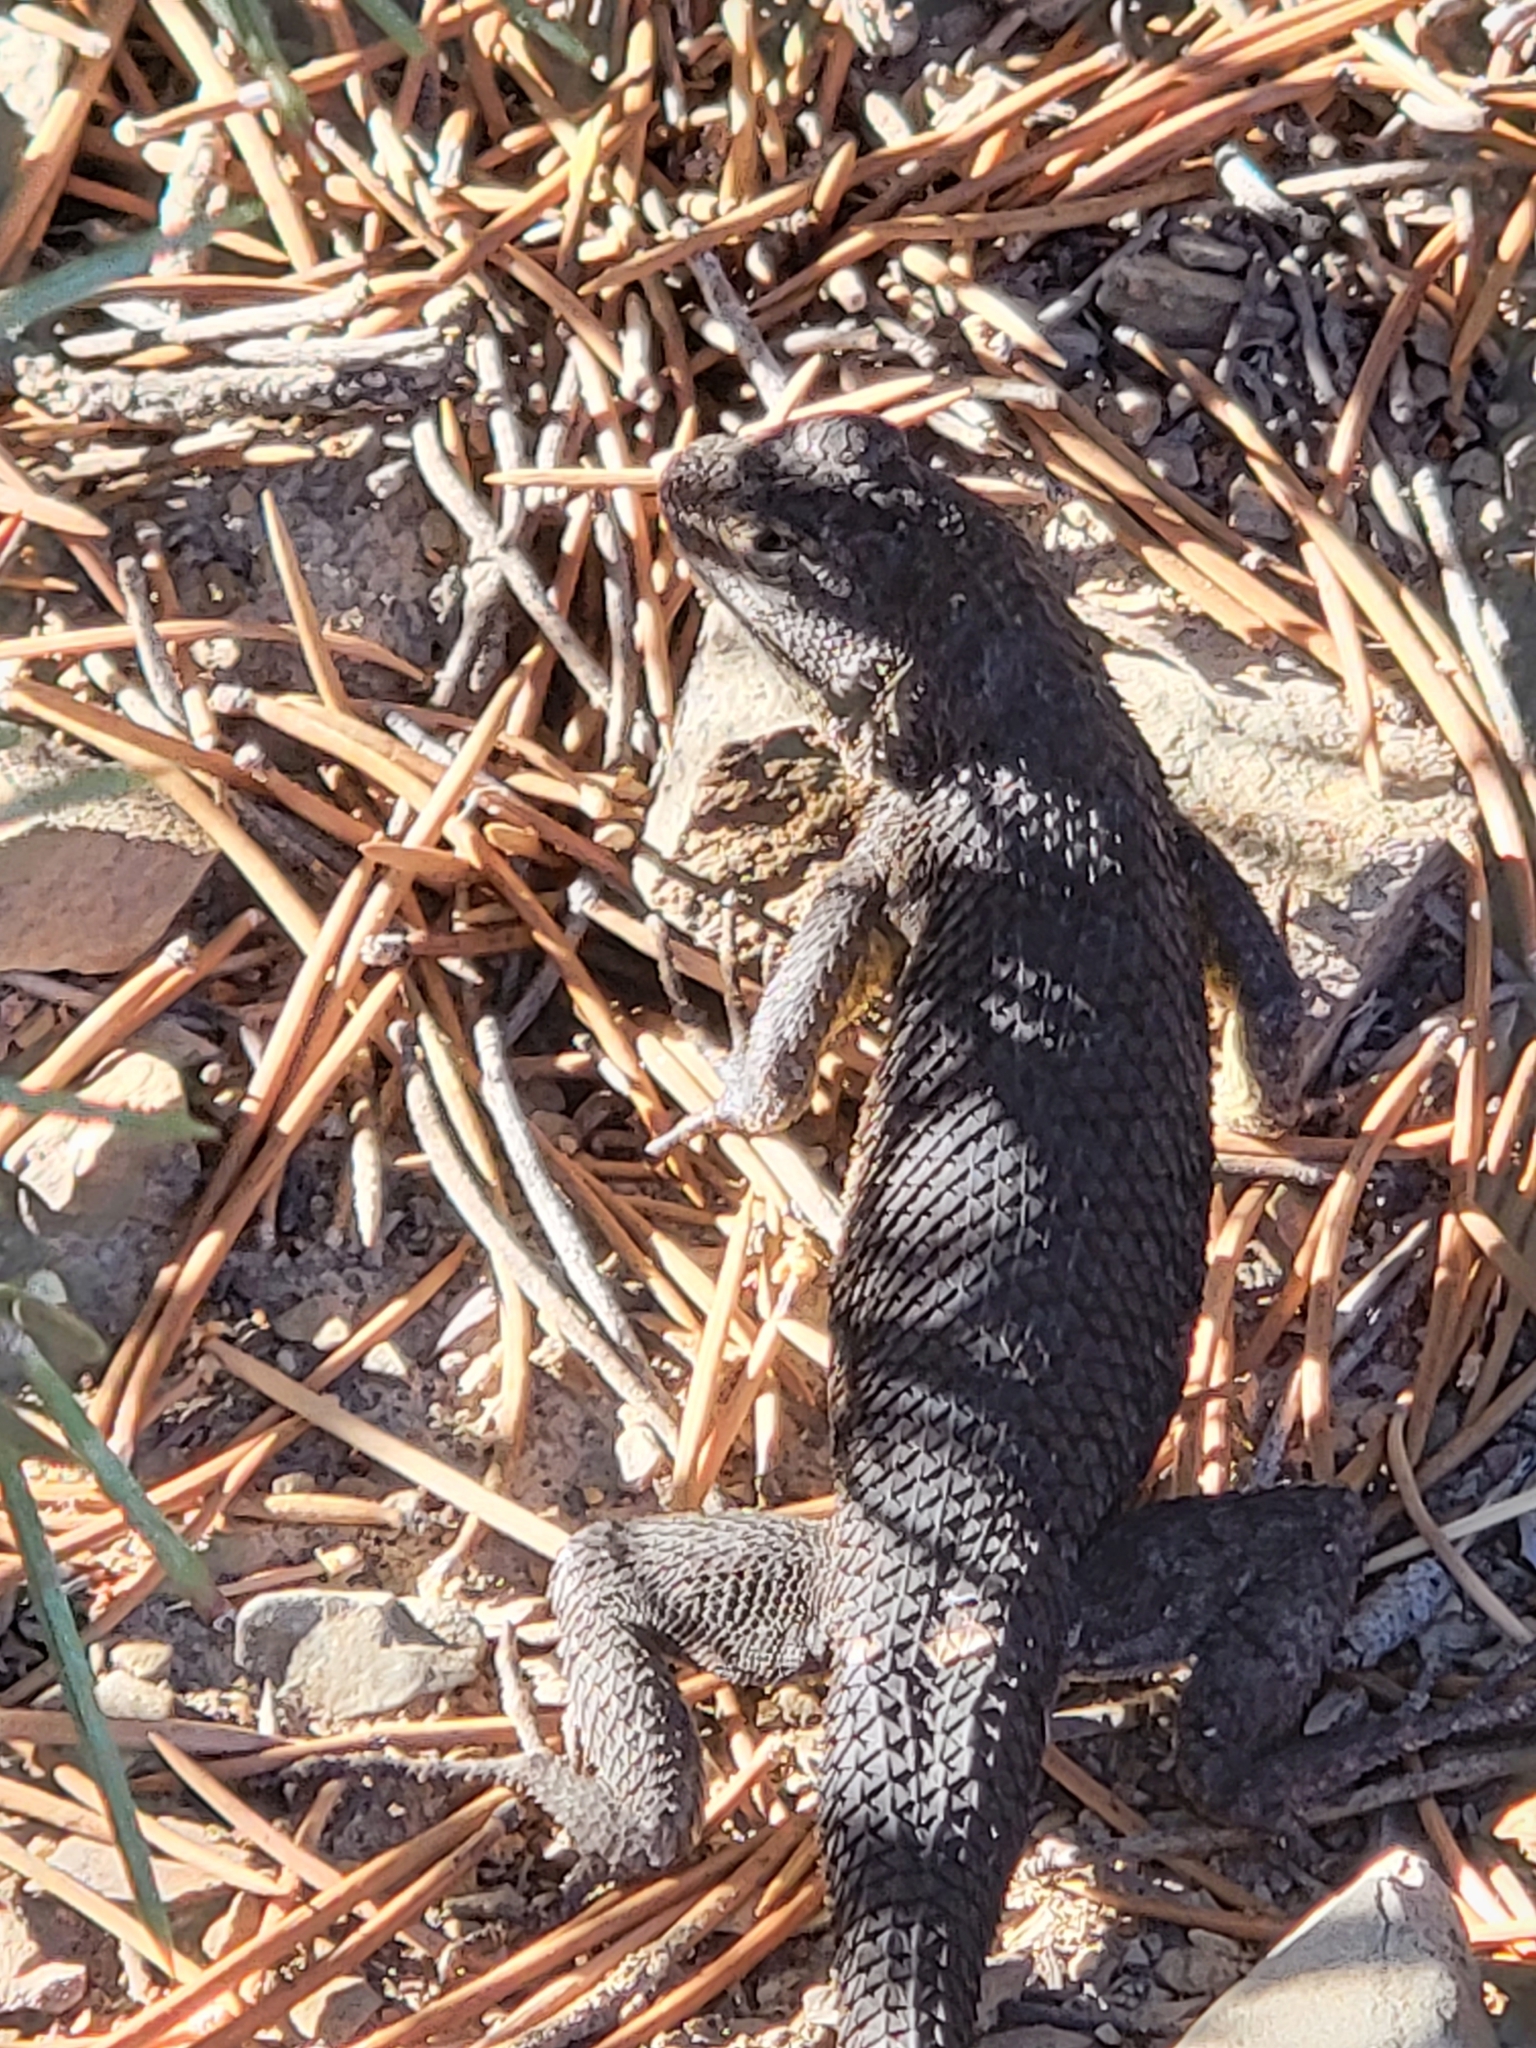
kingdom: Animalia
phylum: Chordata
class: Squamata
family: Phrynosomatidae
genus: Sceloporus
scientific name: Sceloporus occidentalis
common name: Western fence lizard
